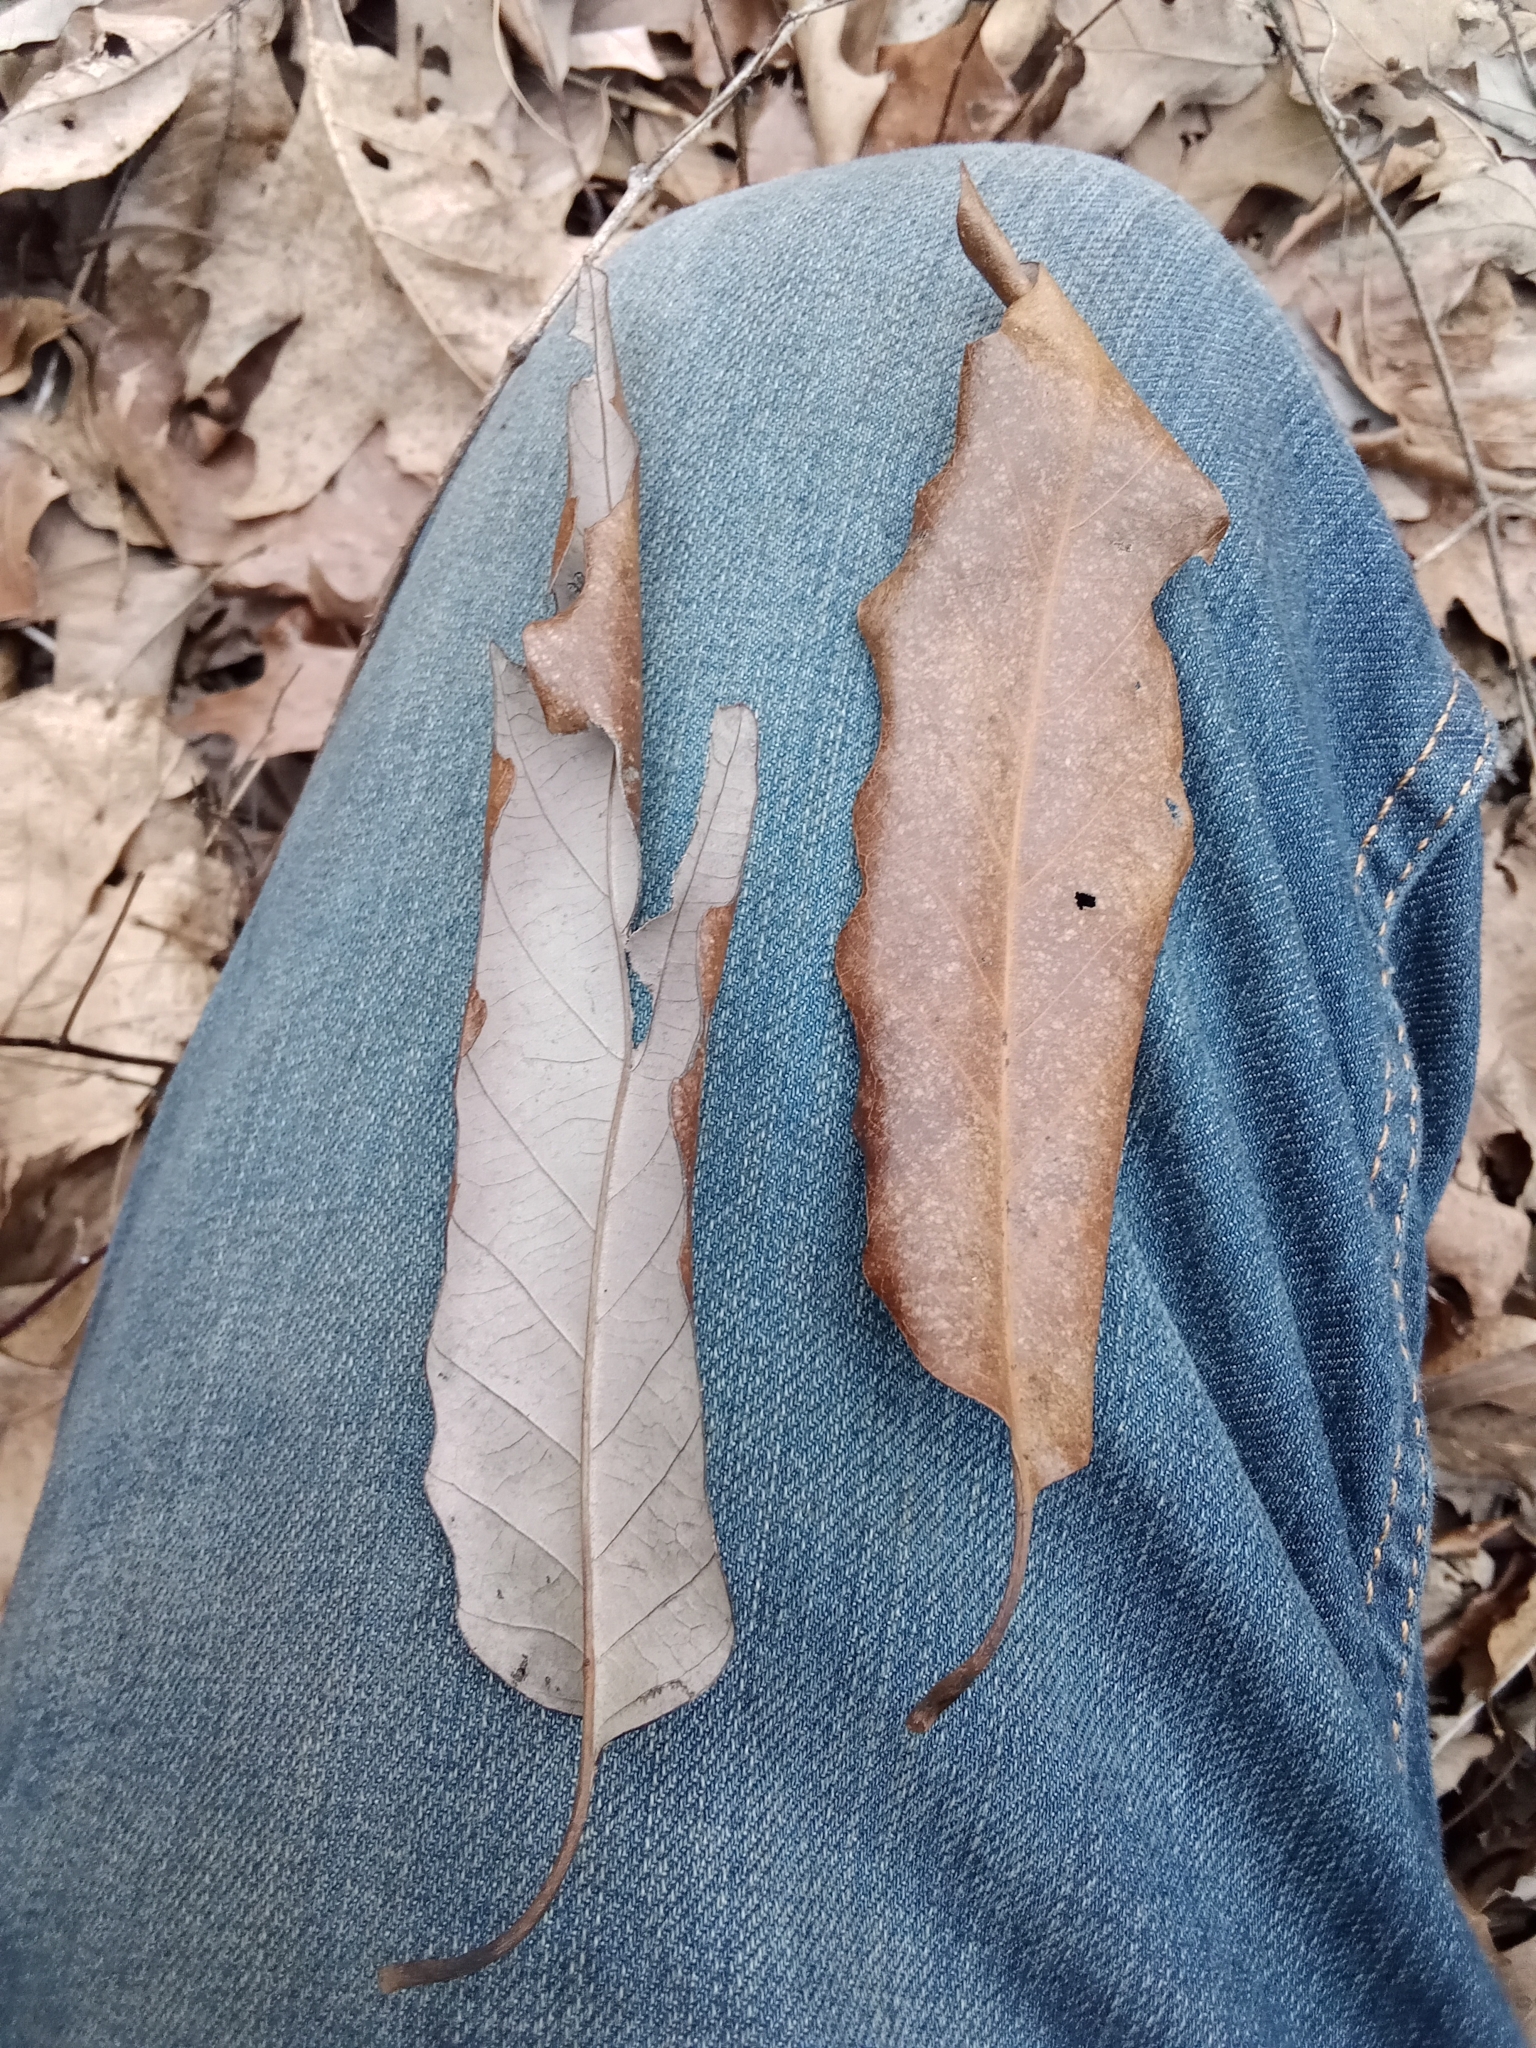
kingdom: Plantae
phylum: Tracheophyta
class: Magnoliopsida
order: Fagales
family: Fagaceae
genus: Quercus
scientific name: Quercus muehlenbergii
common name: Chinkapin oak
